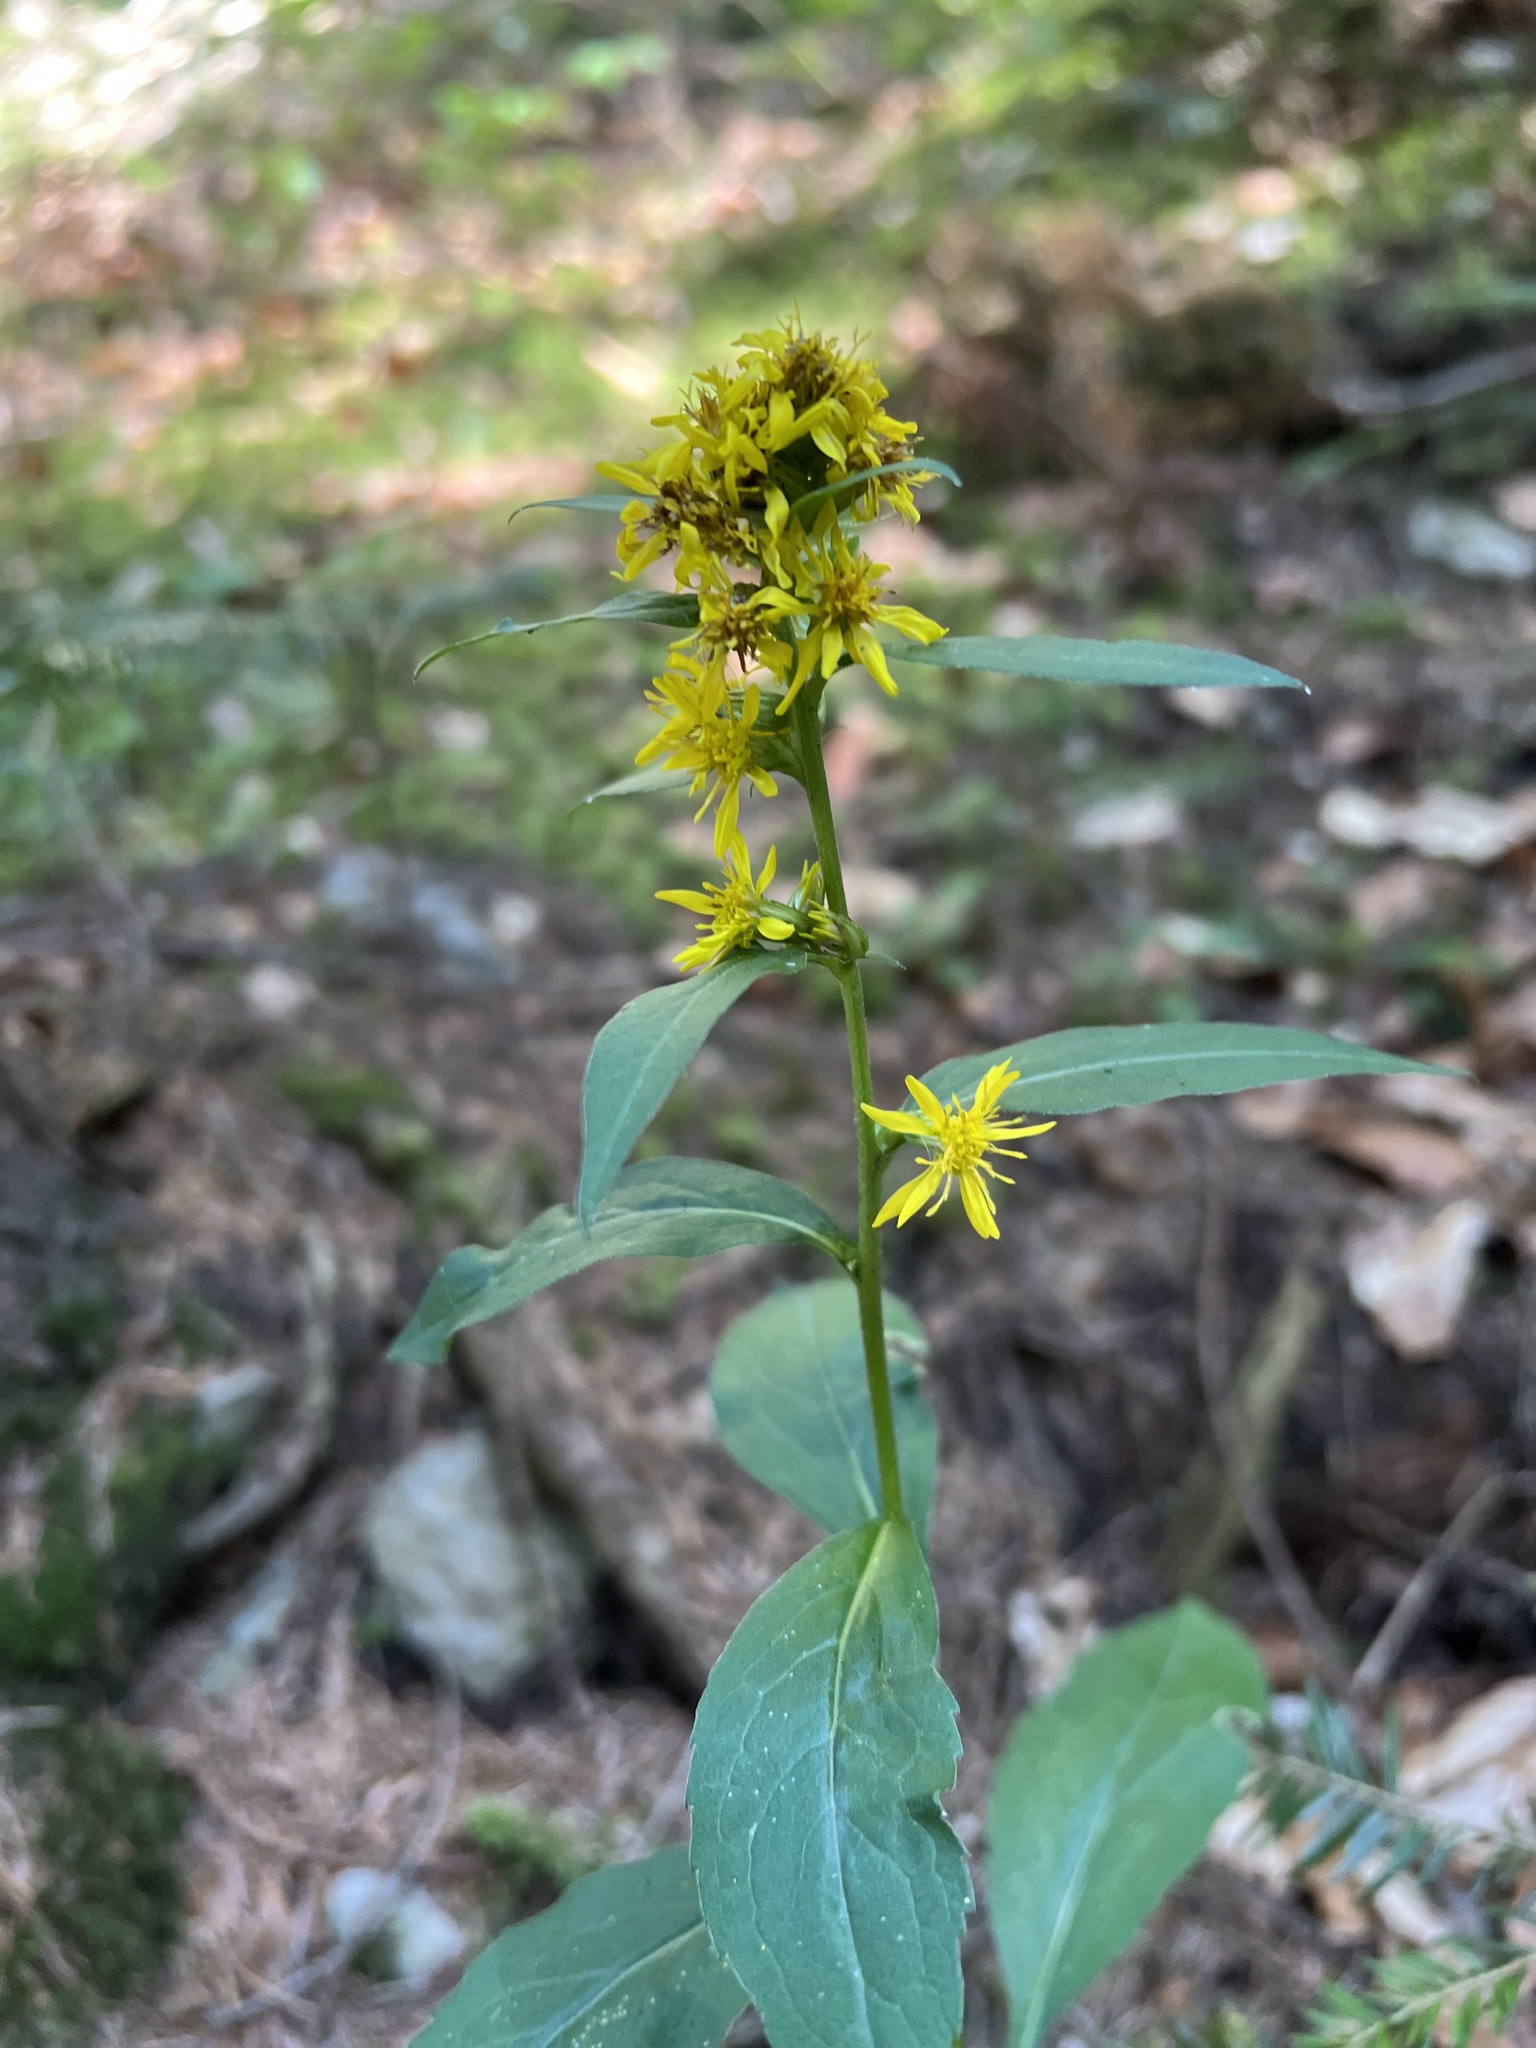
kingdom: Plantae
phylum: Tracheophyta
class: Magnoliopsida
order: Asterales
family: Asteraceae
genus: Solidago
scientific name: Solidago virgaurea
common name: Goldenrod
